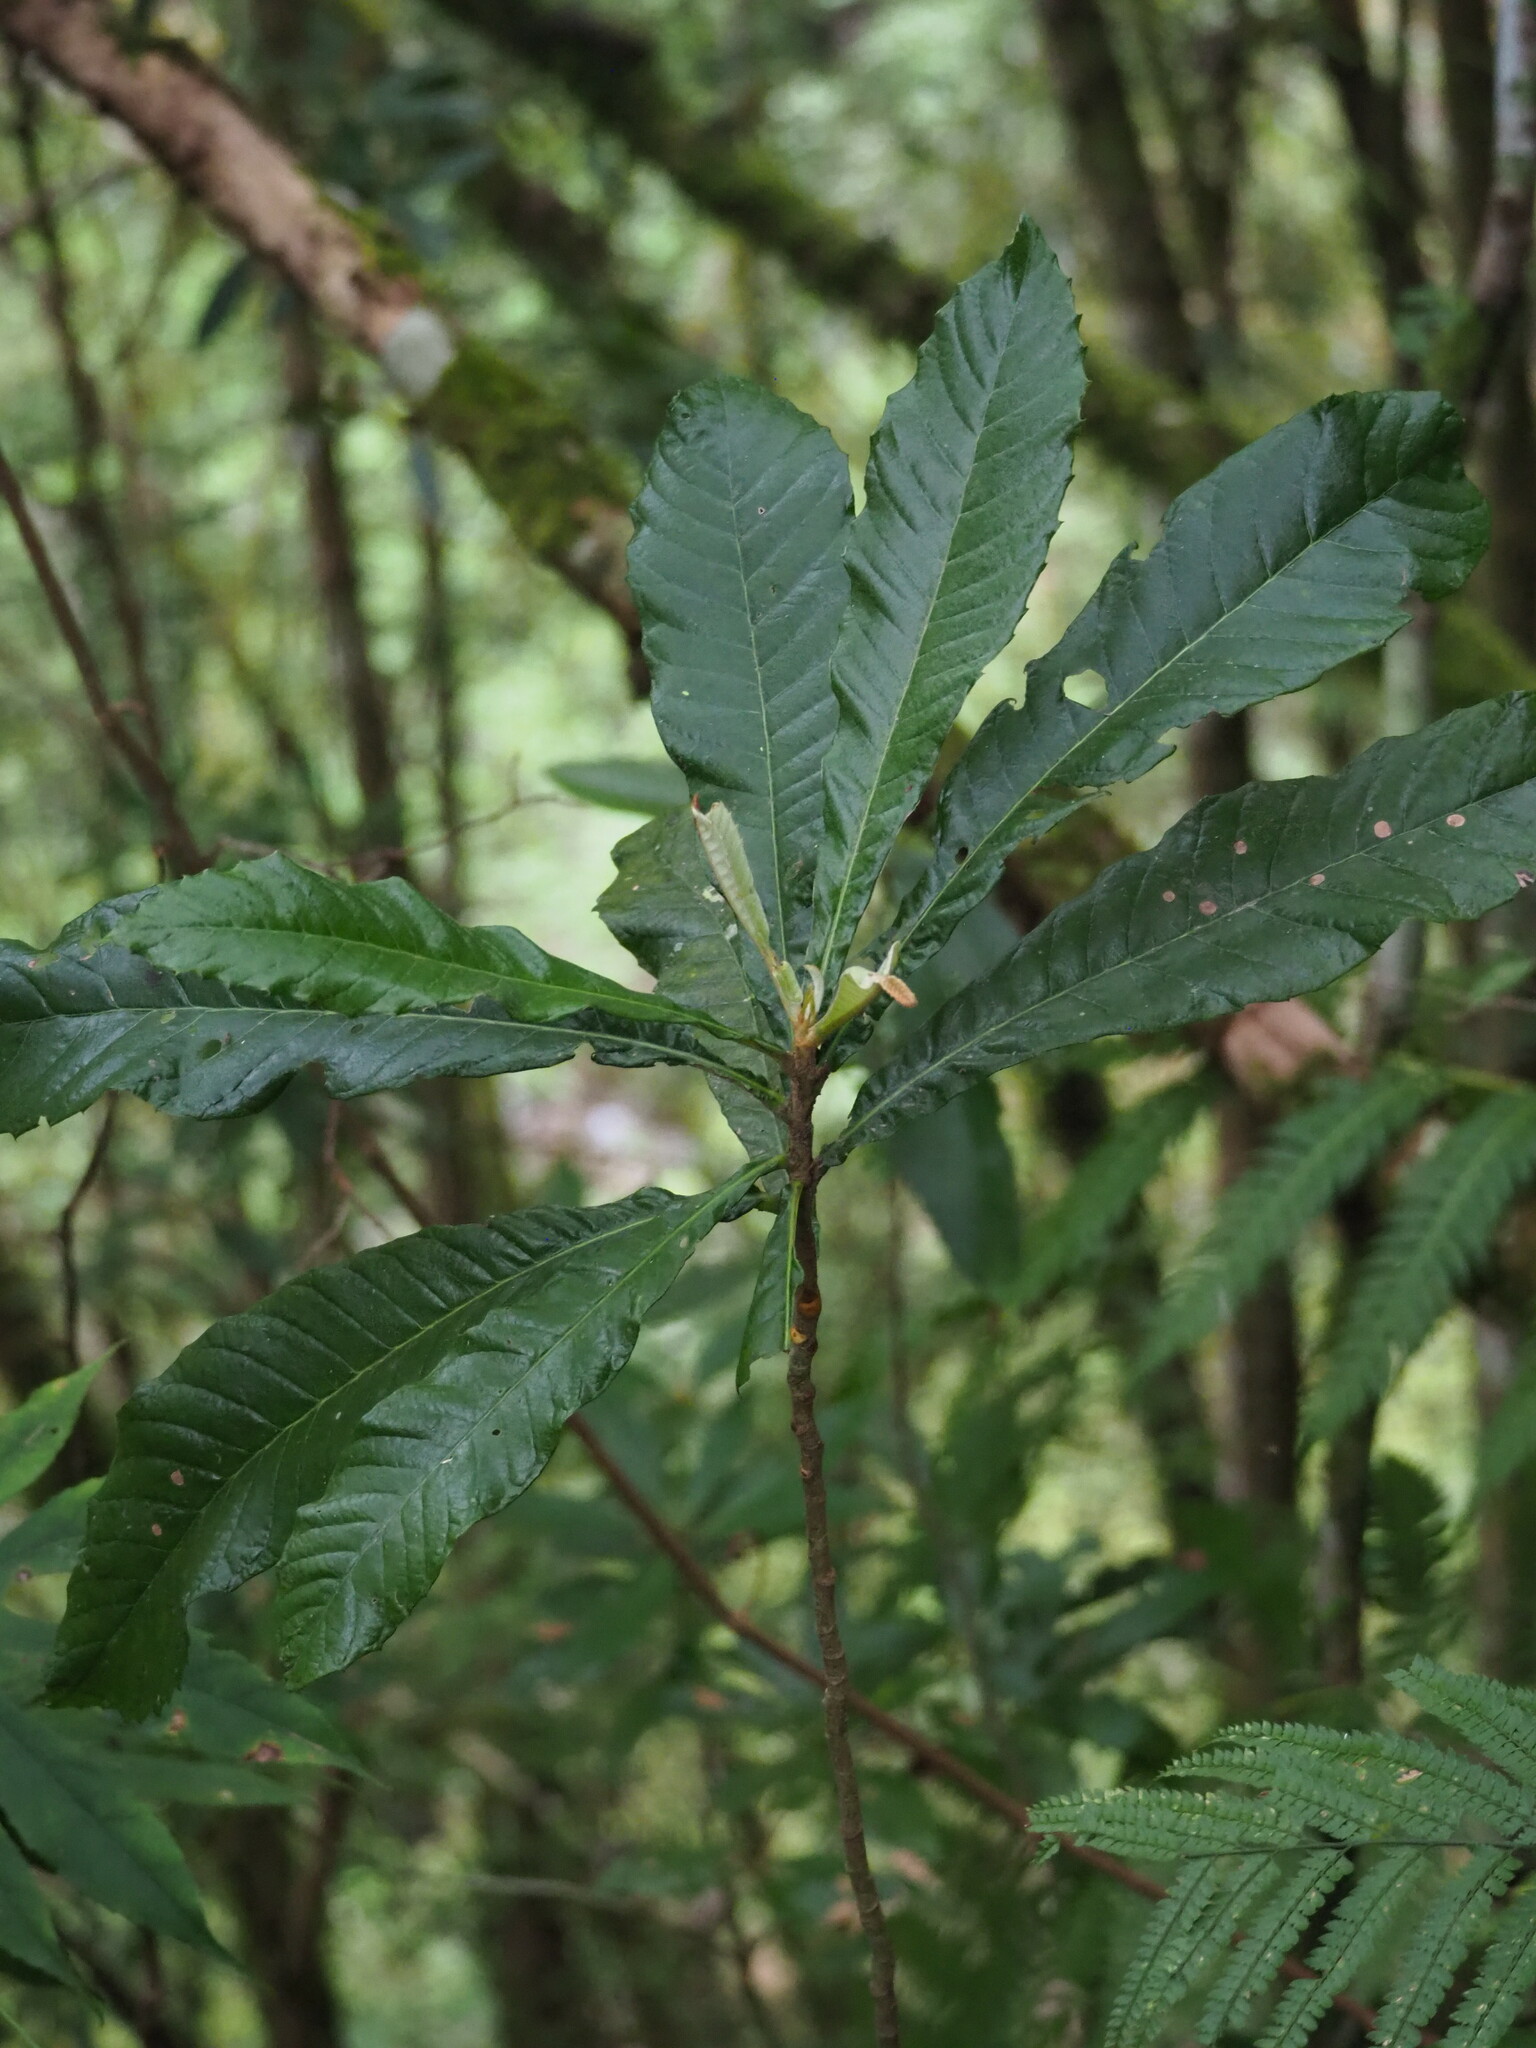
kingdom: Plantae
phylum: Tracheophyta
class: Magnoliopsida
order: Rosales
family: Rosaceae
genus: Rhaphiolepis
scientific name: Rhaphiolepis deflexa
